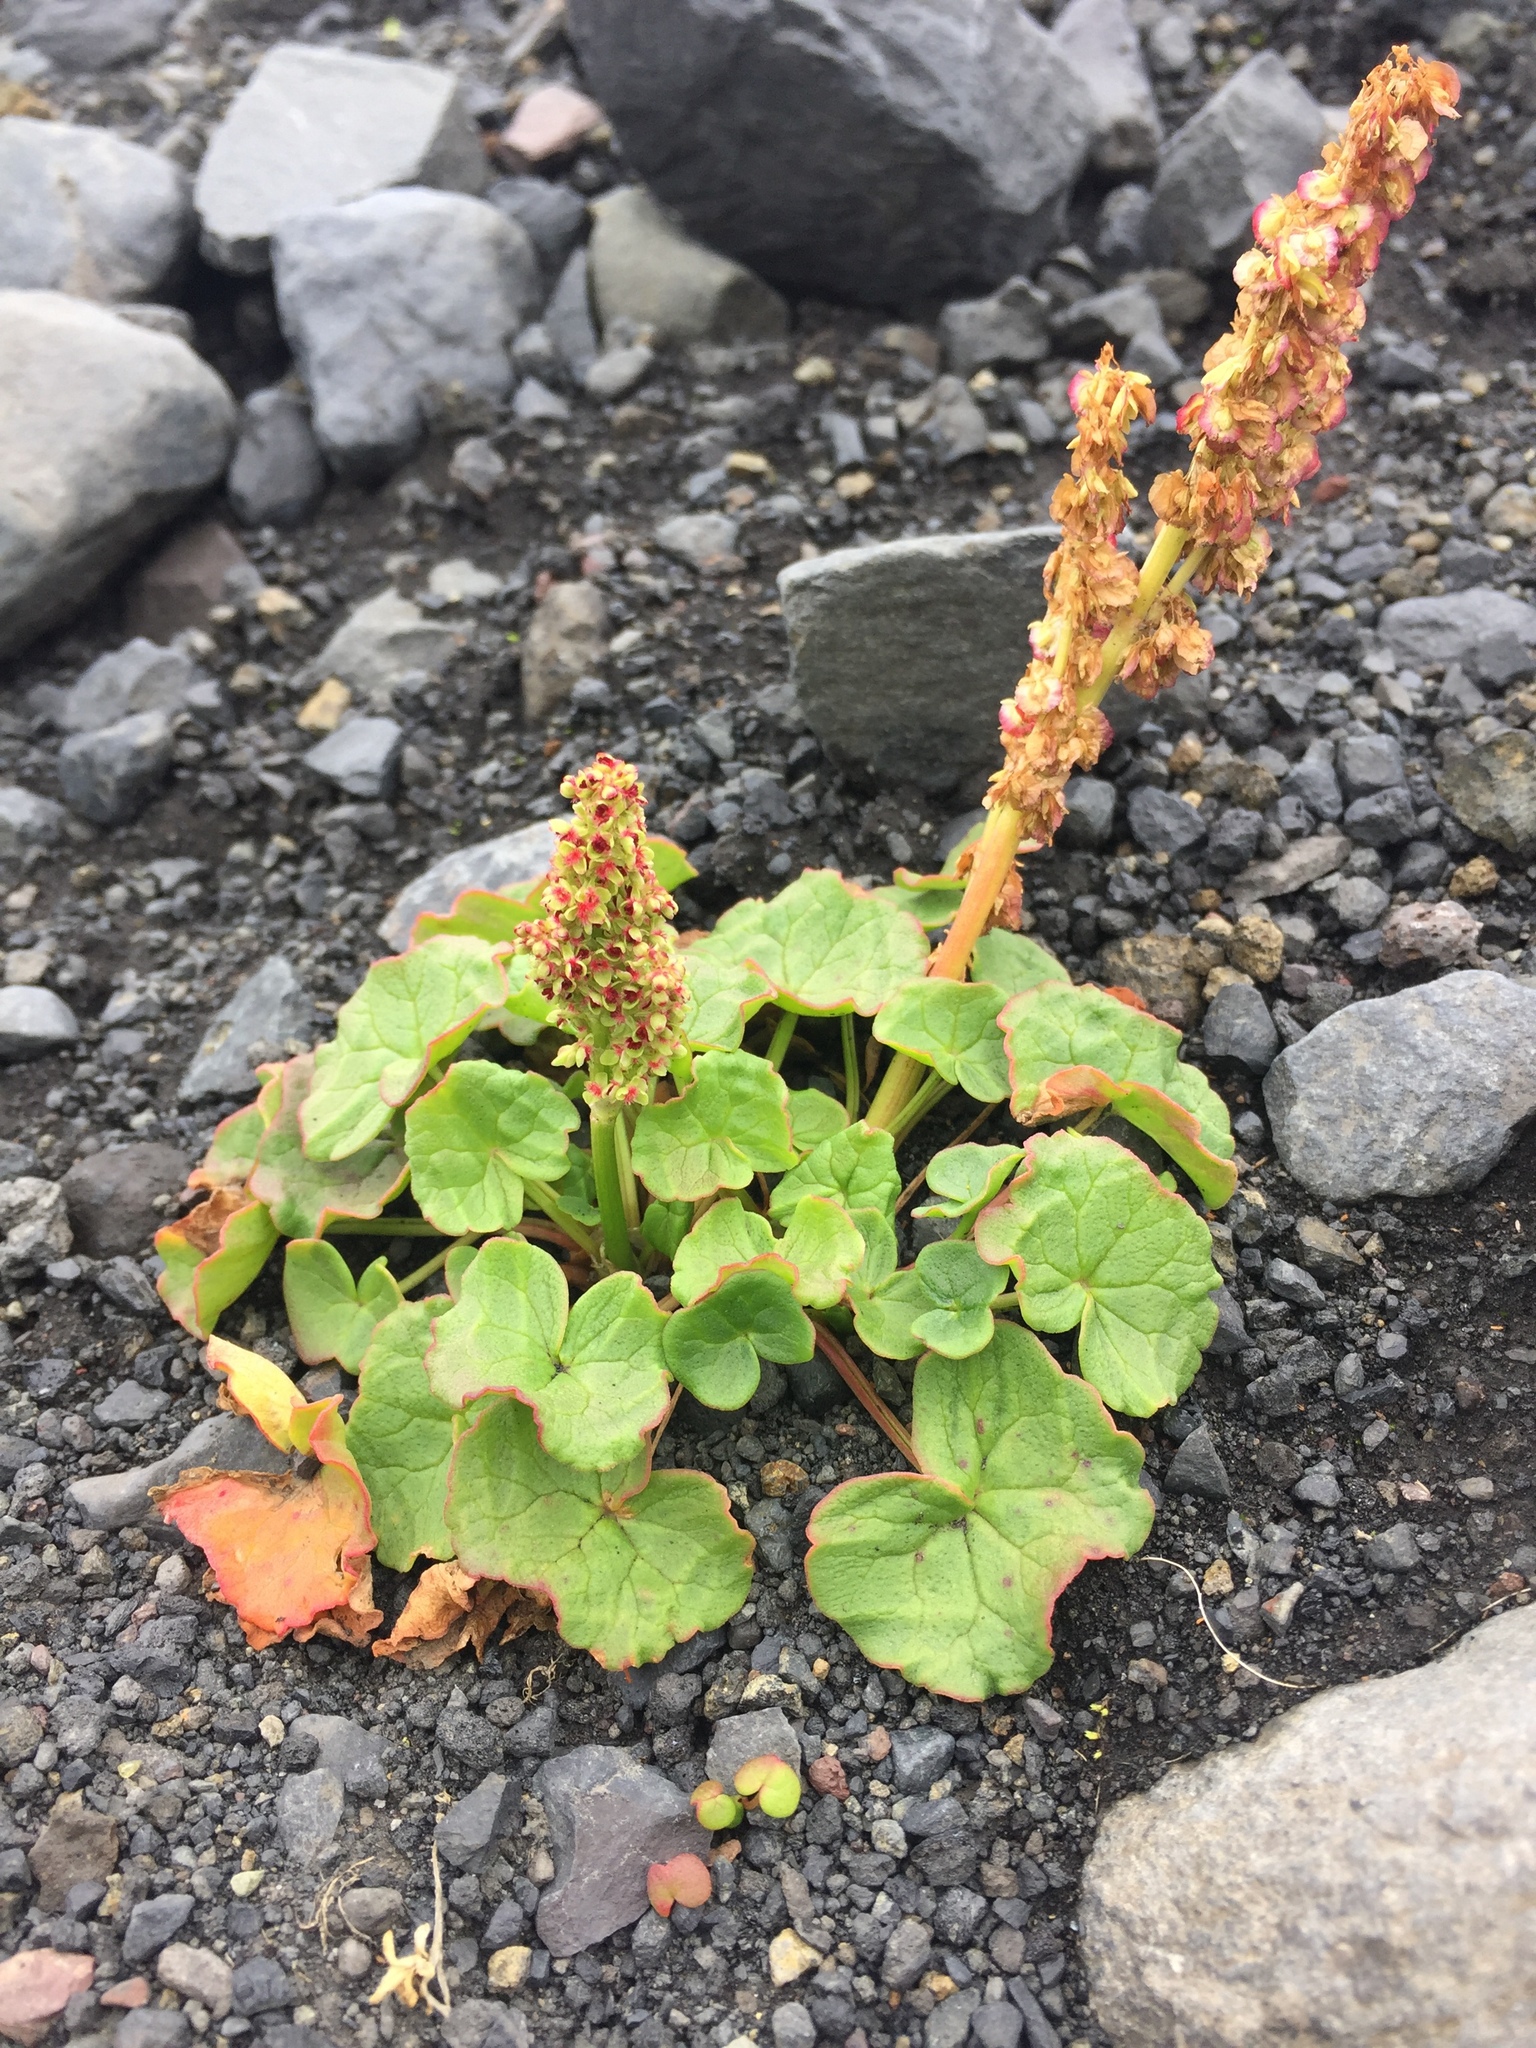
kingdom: Plantae
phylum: Tracheophyta
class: Magnoliopsida
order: Caryophyllales
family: Polygonaceae
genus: Oxyria
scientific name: Oxyria digyna
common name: Alpine mountain-sorrel
